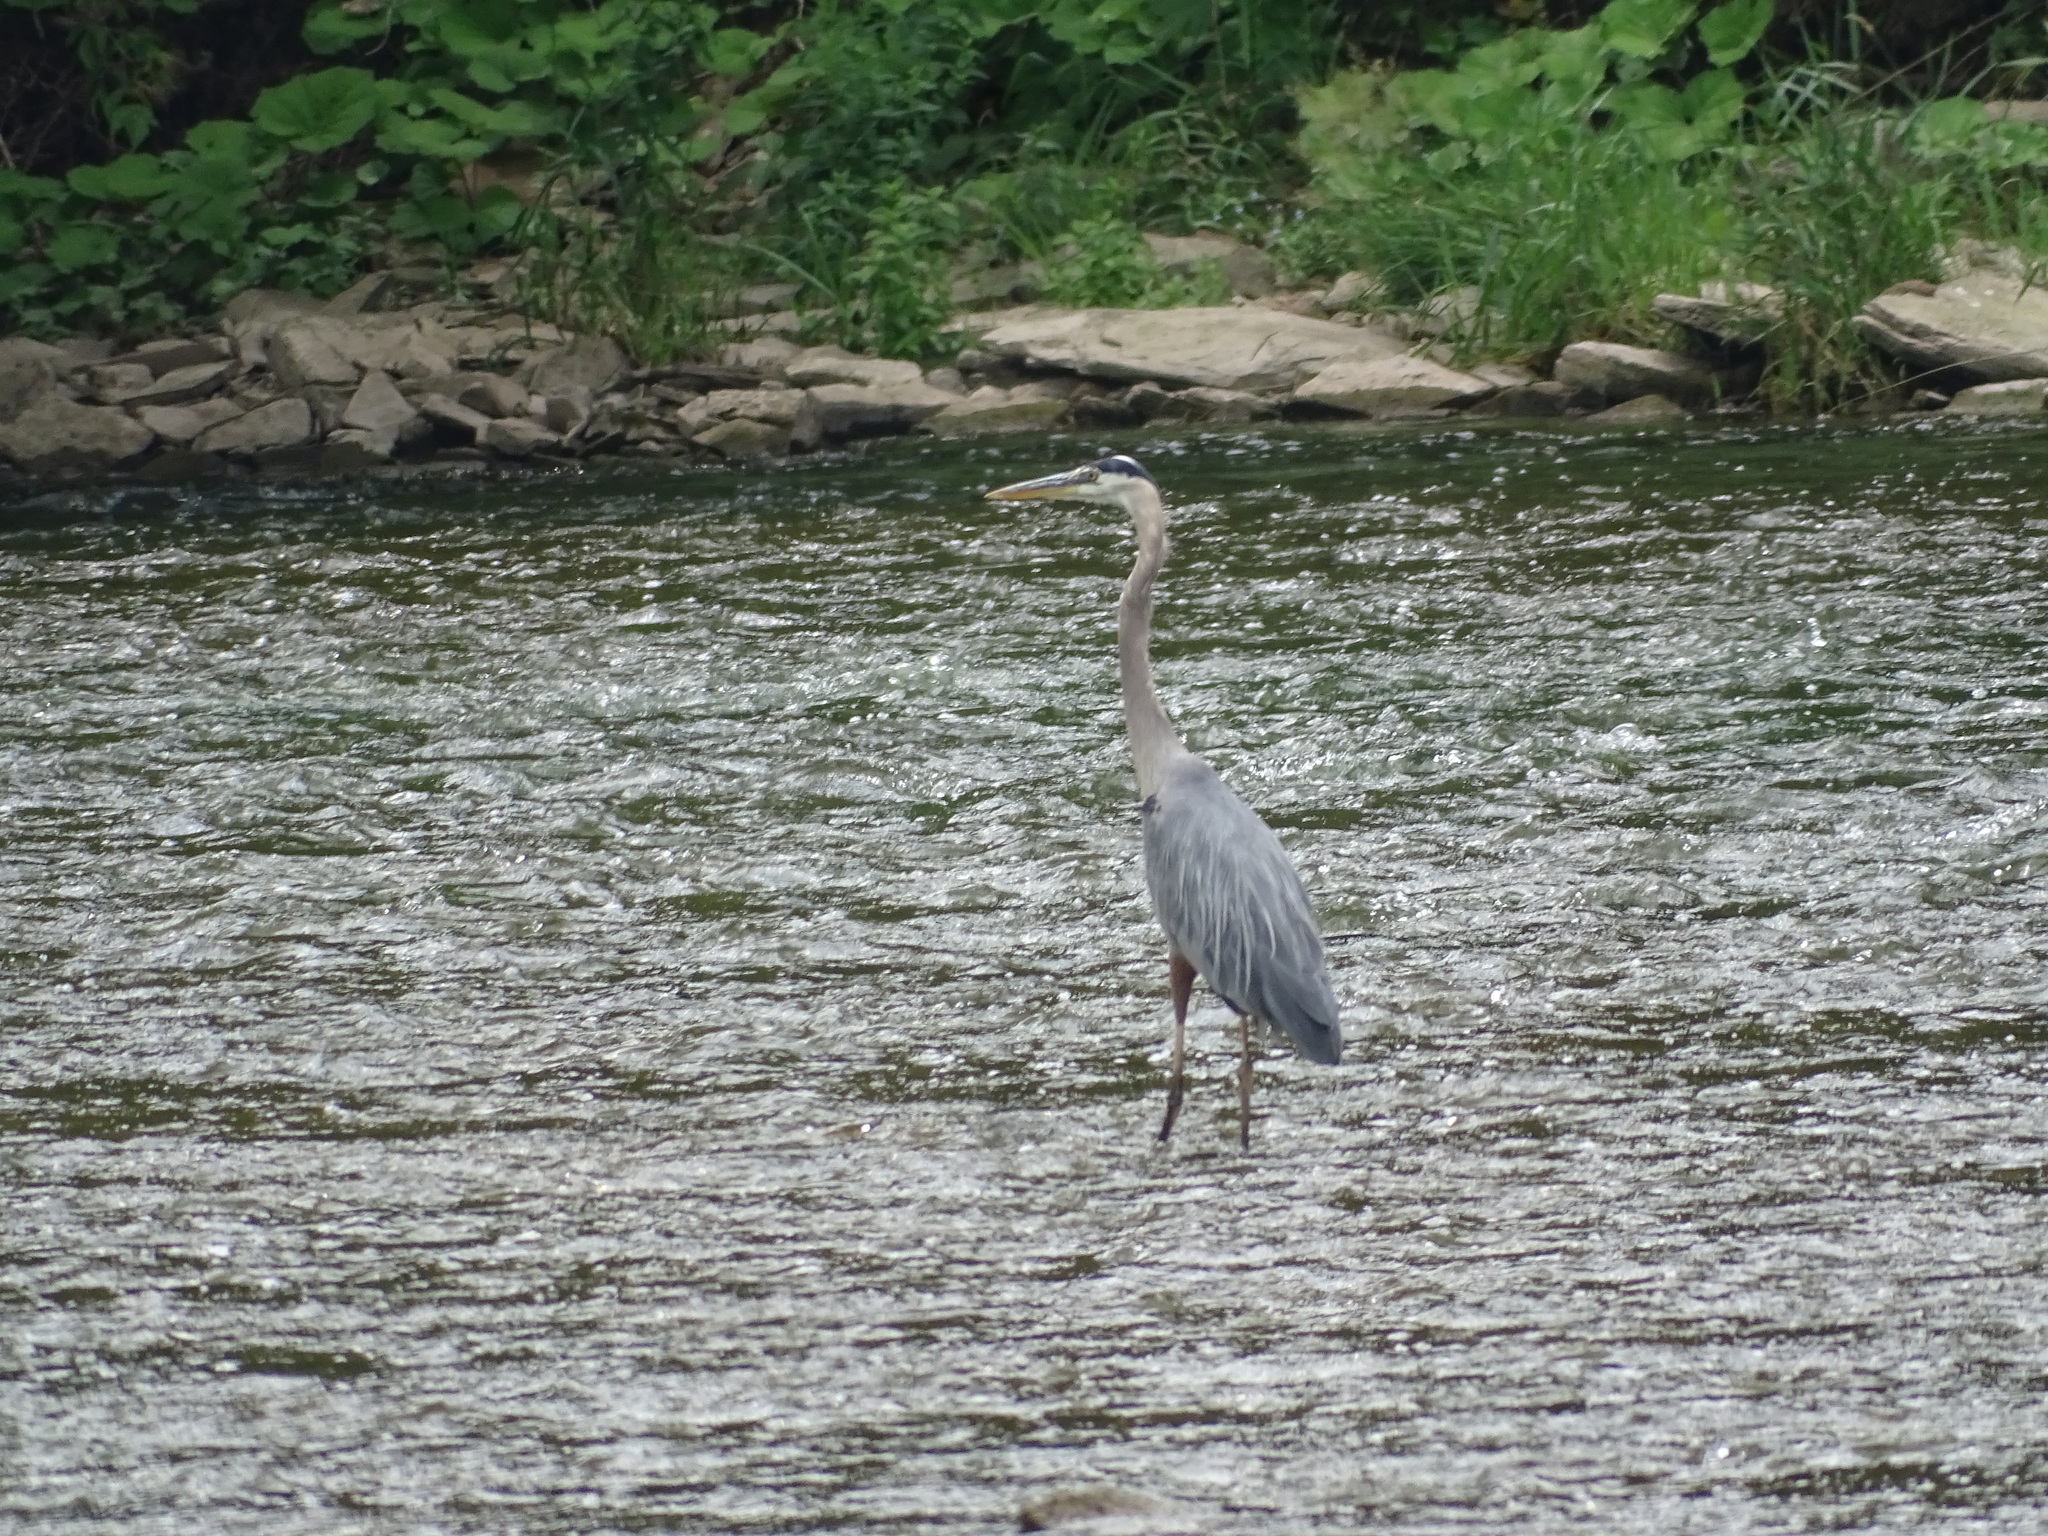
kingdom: Animalia
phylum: Chordata
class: Aves
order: Pelecaniformes
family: Ardeidae
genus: Ardea
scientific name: Ardea herodias
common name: Great blue heron
